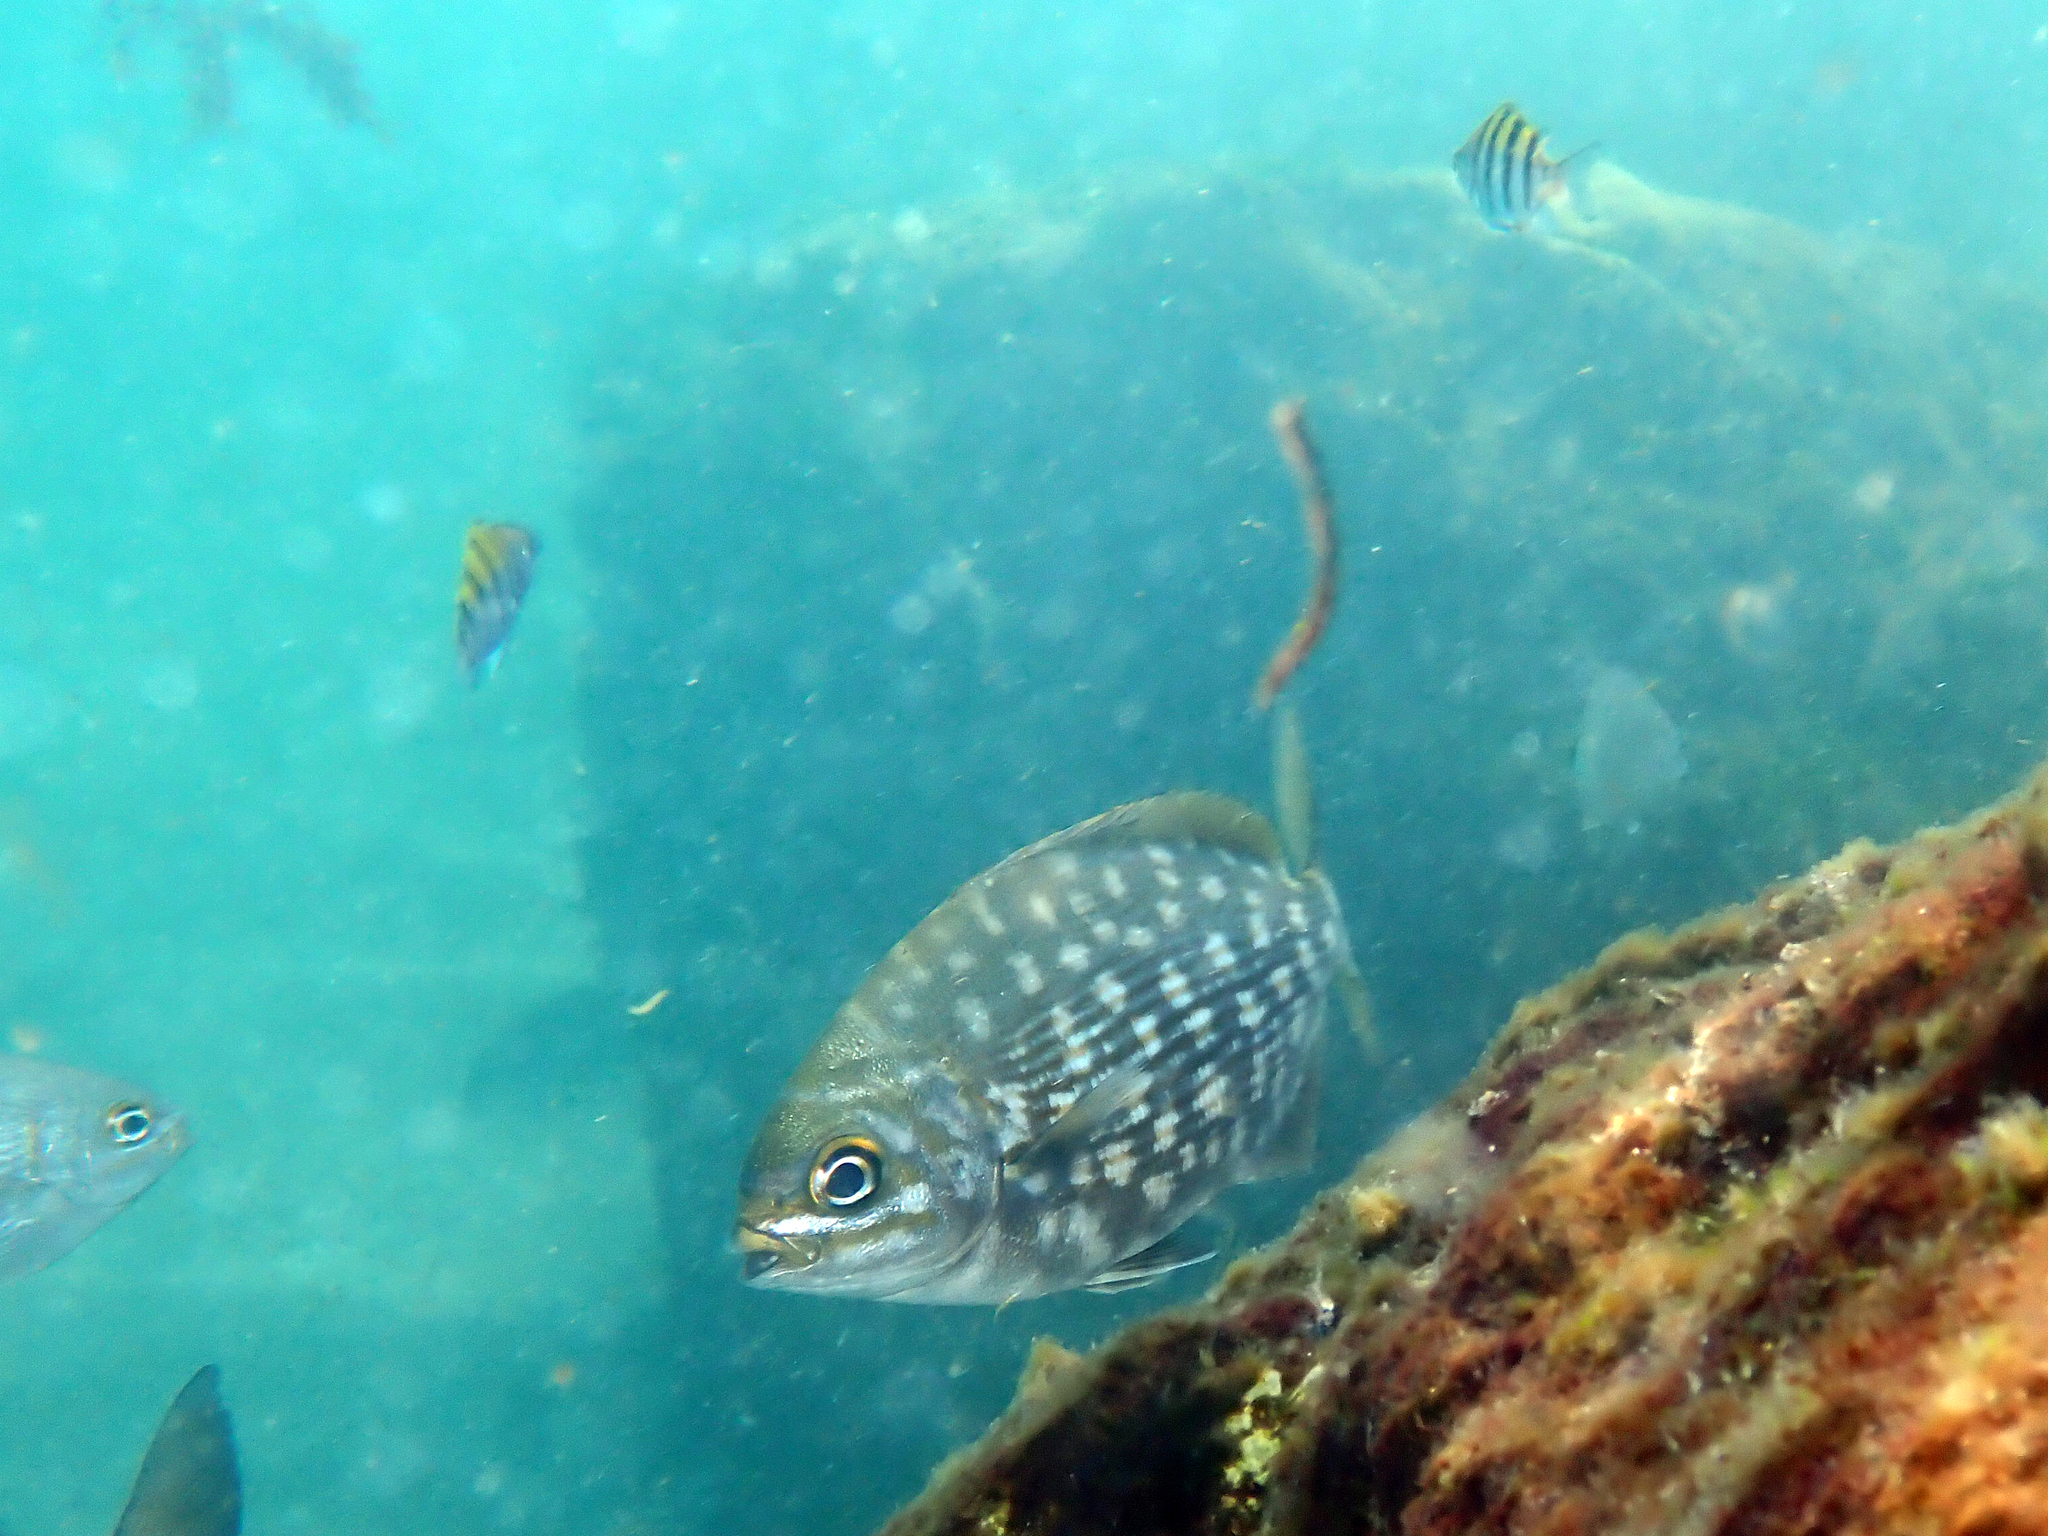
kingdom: Animalia
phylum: Chordata
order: Perciformes
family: Kyphosidae
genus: Kyphosus
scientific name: Kyphosus vaigiensis
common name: Brassy chub
